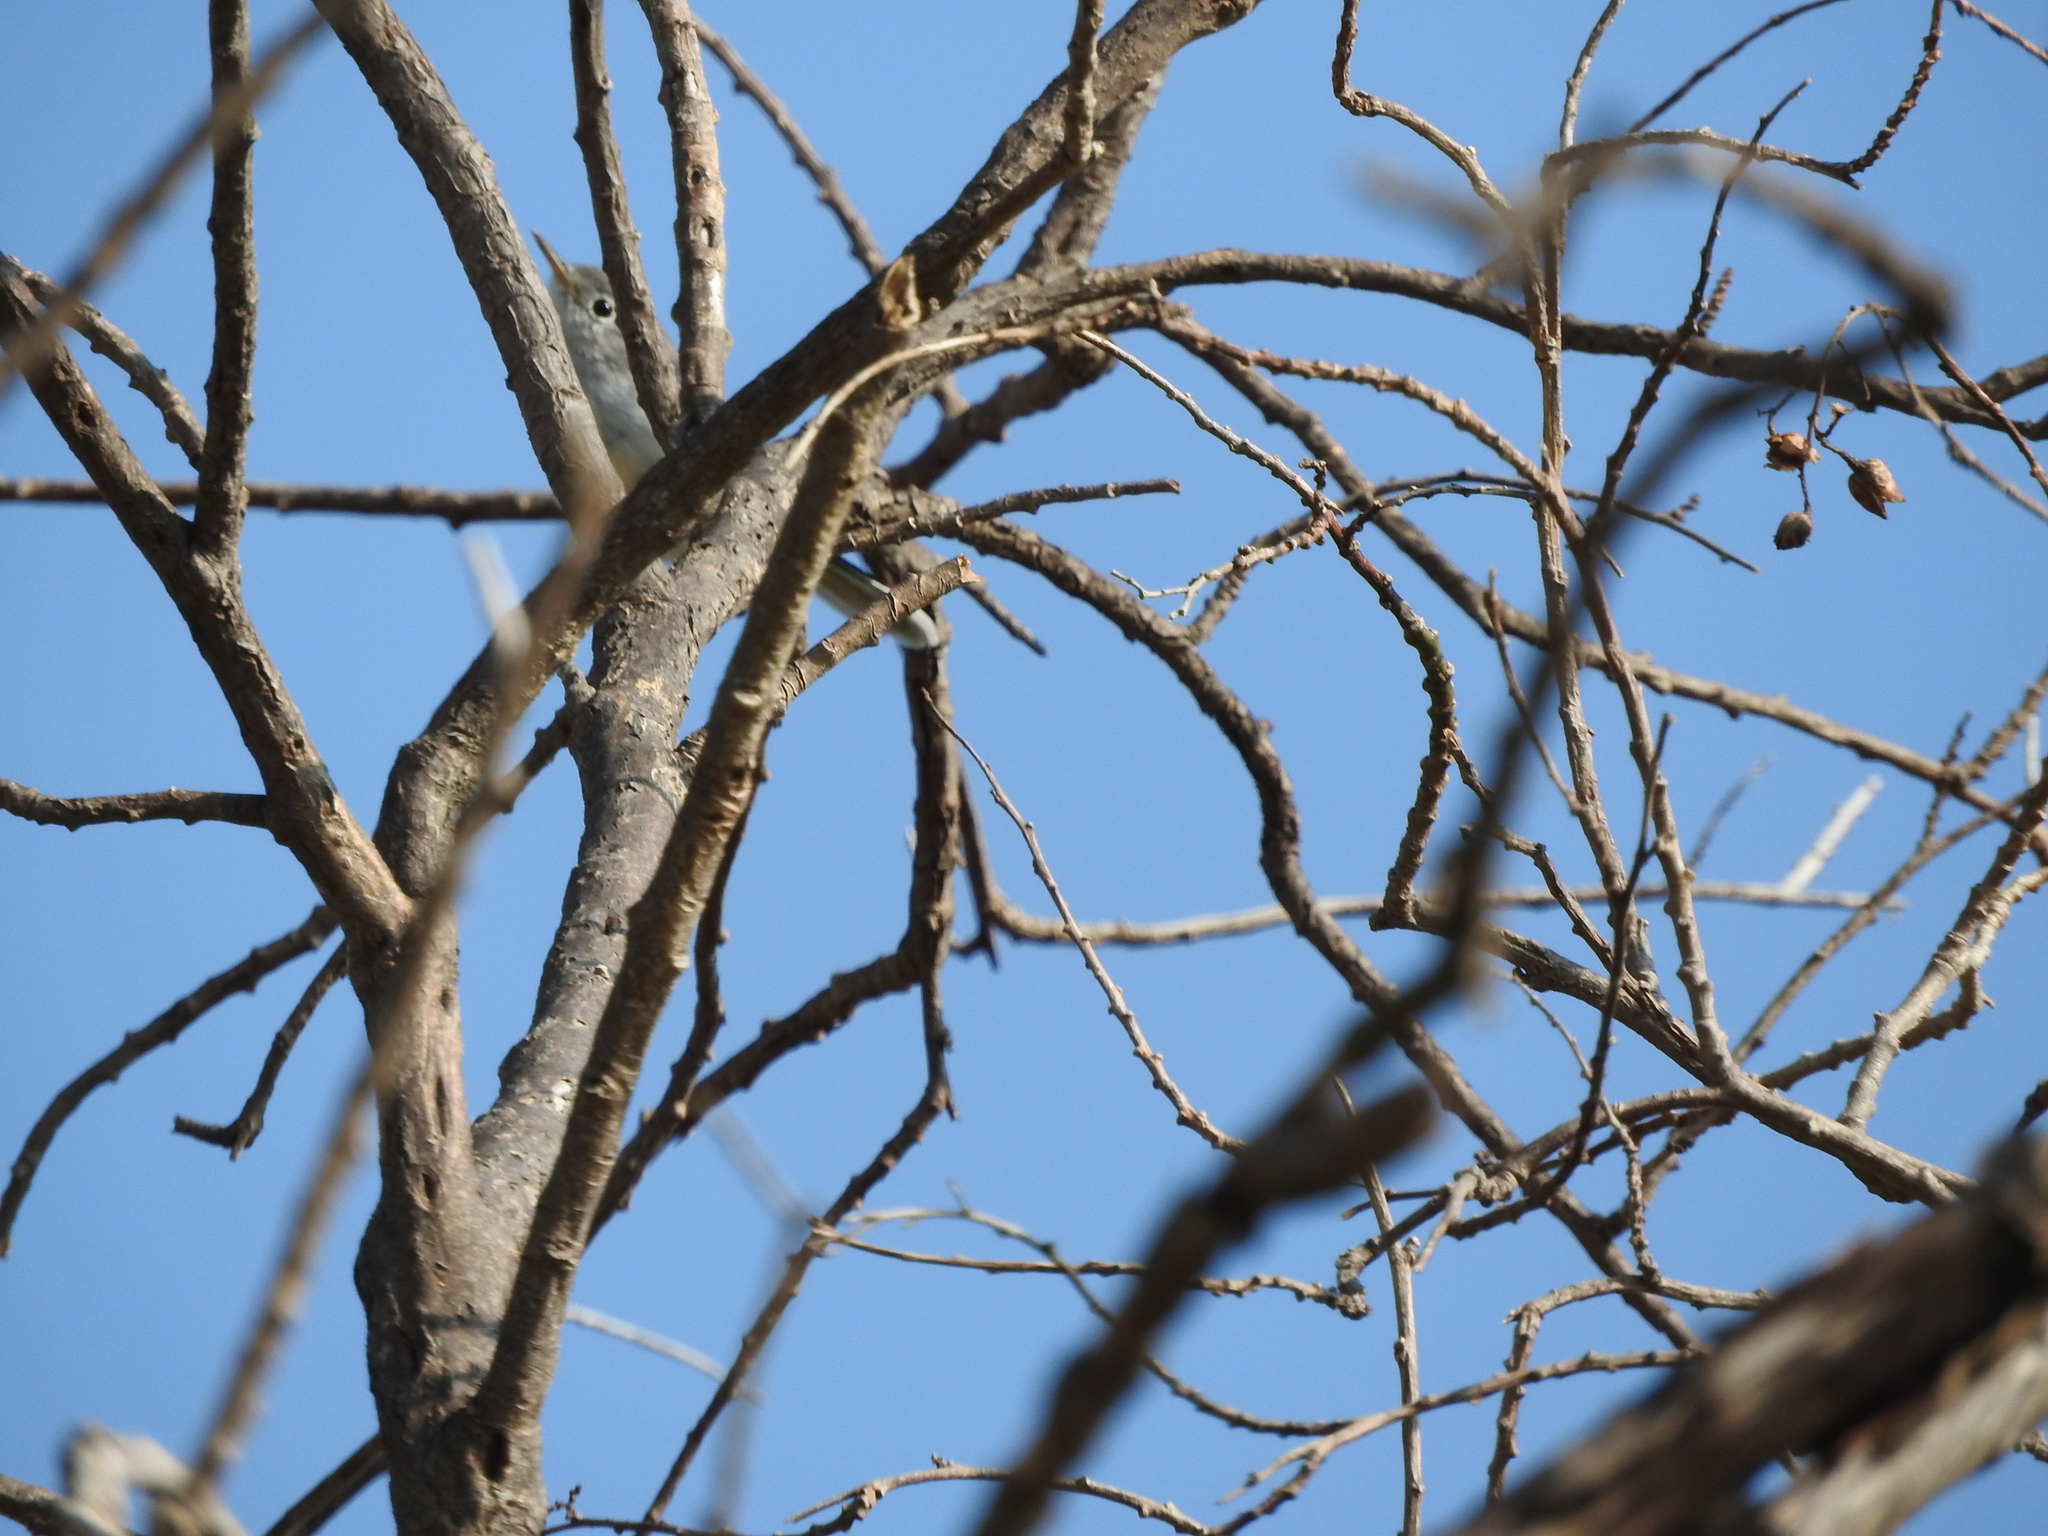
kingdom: Animalia
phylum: Chordata
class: Aves
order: Passeriformes
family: Polioptilidae
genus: Polioptila
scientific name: Polioptila caerulea
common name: Blue-gray gnatcatcher
